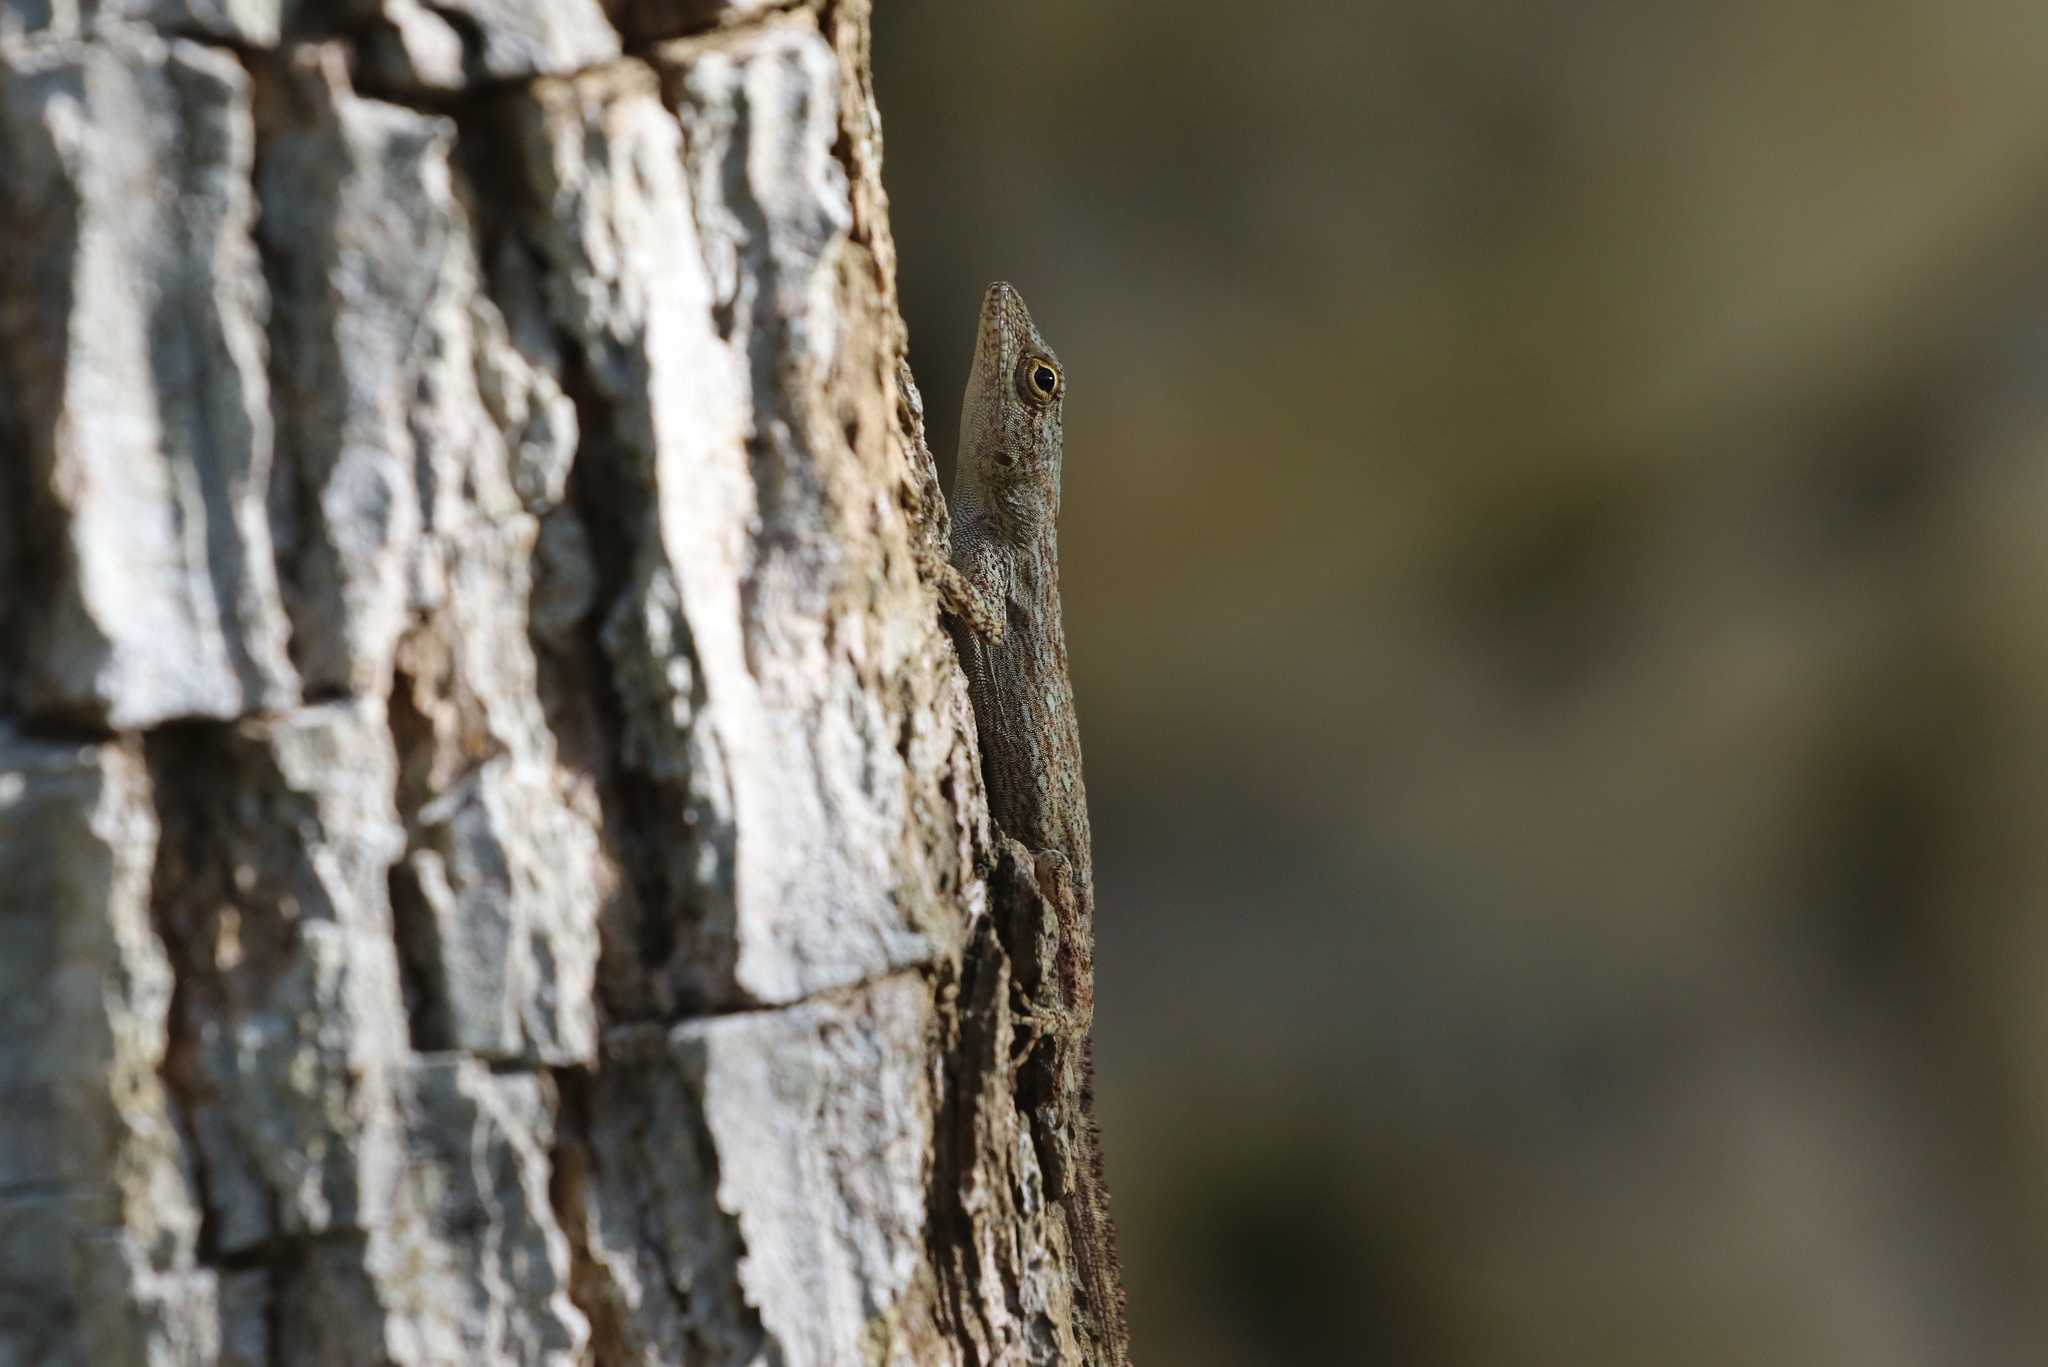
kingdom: Animalia
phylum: Chordata
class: Squamata
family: Dactyloidae
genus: Anolis
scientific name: Anolis distichus
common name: Bark anole
